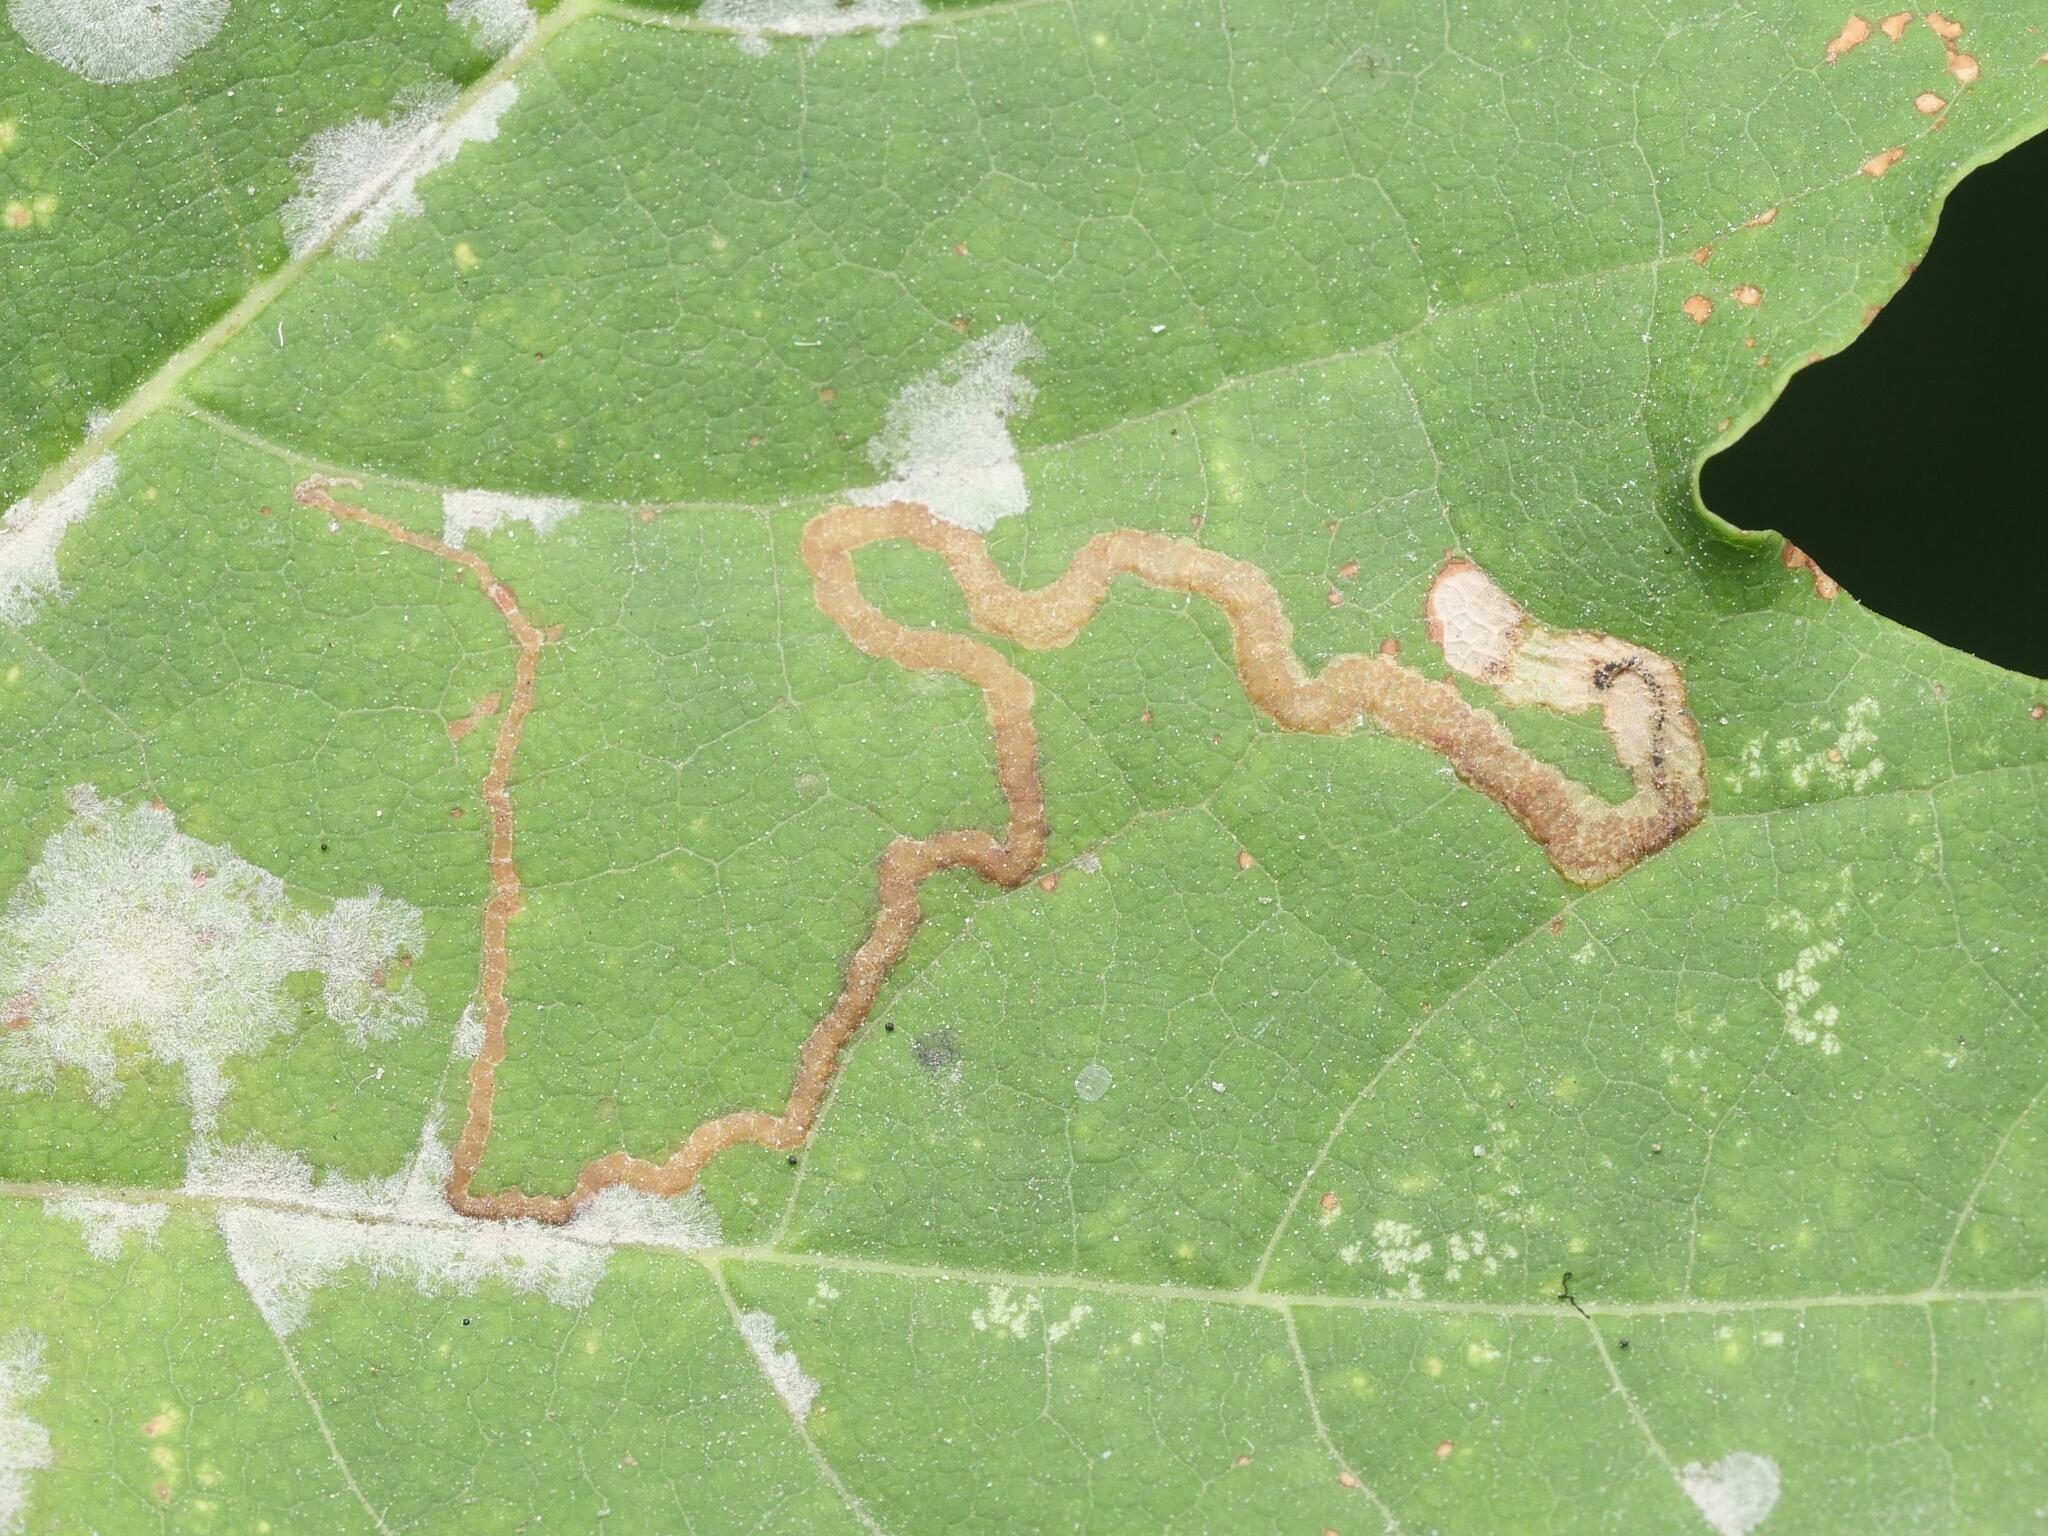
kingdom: Animalia
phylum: Arthropoda
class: Insecta
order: Lepidoptera
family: Nepticulidae
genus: Stigmella
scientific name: Stigmella aceris
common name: Scarce maple pigmy
